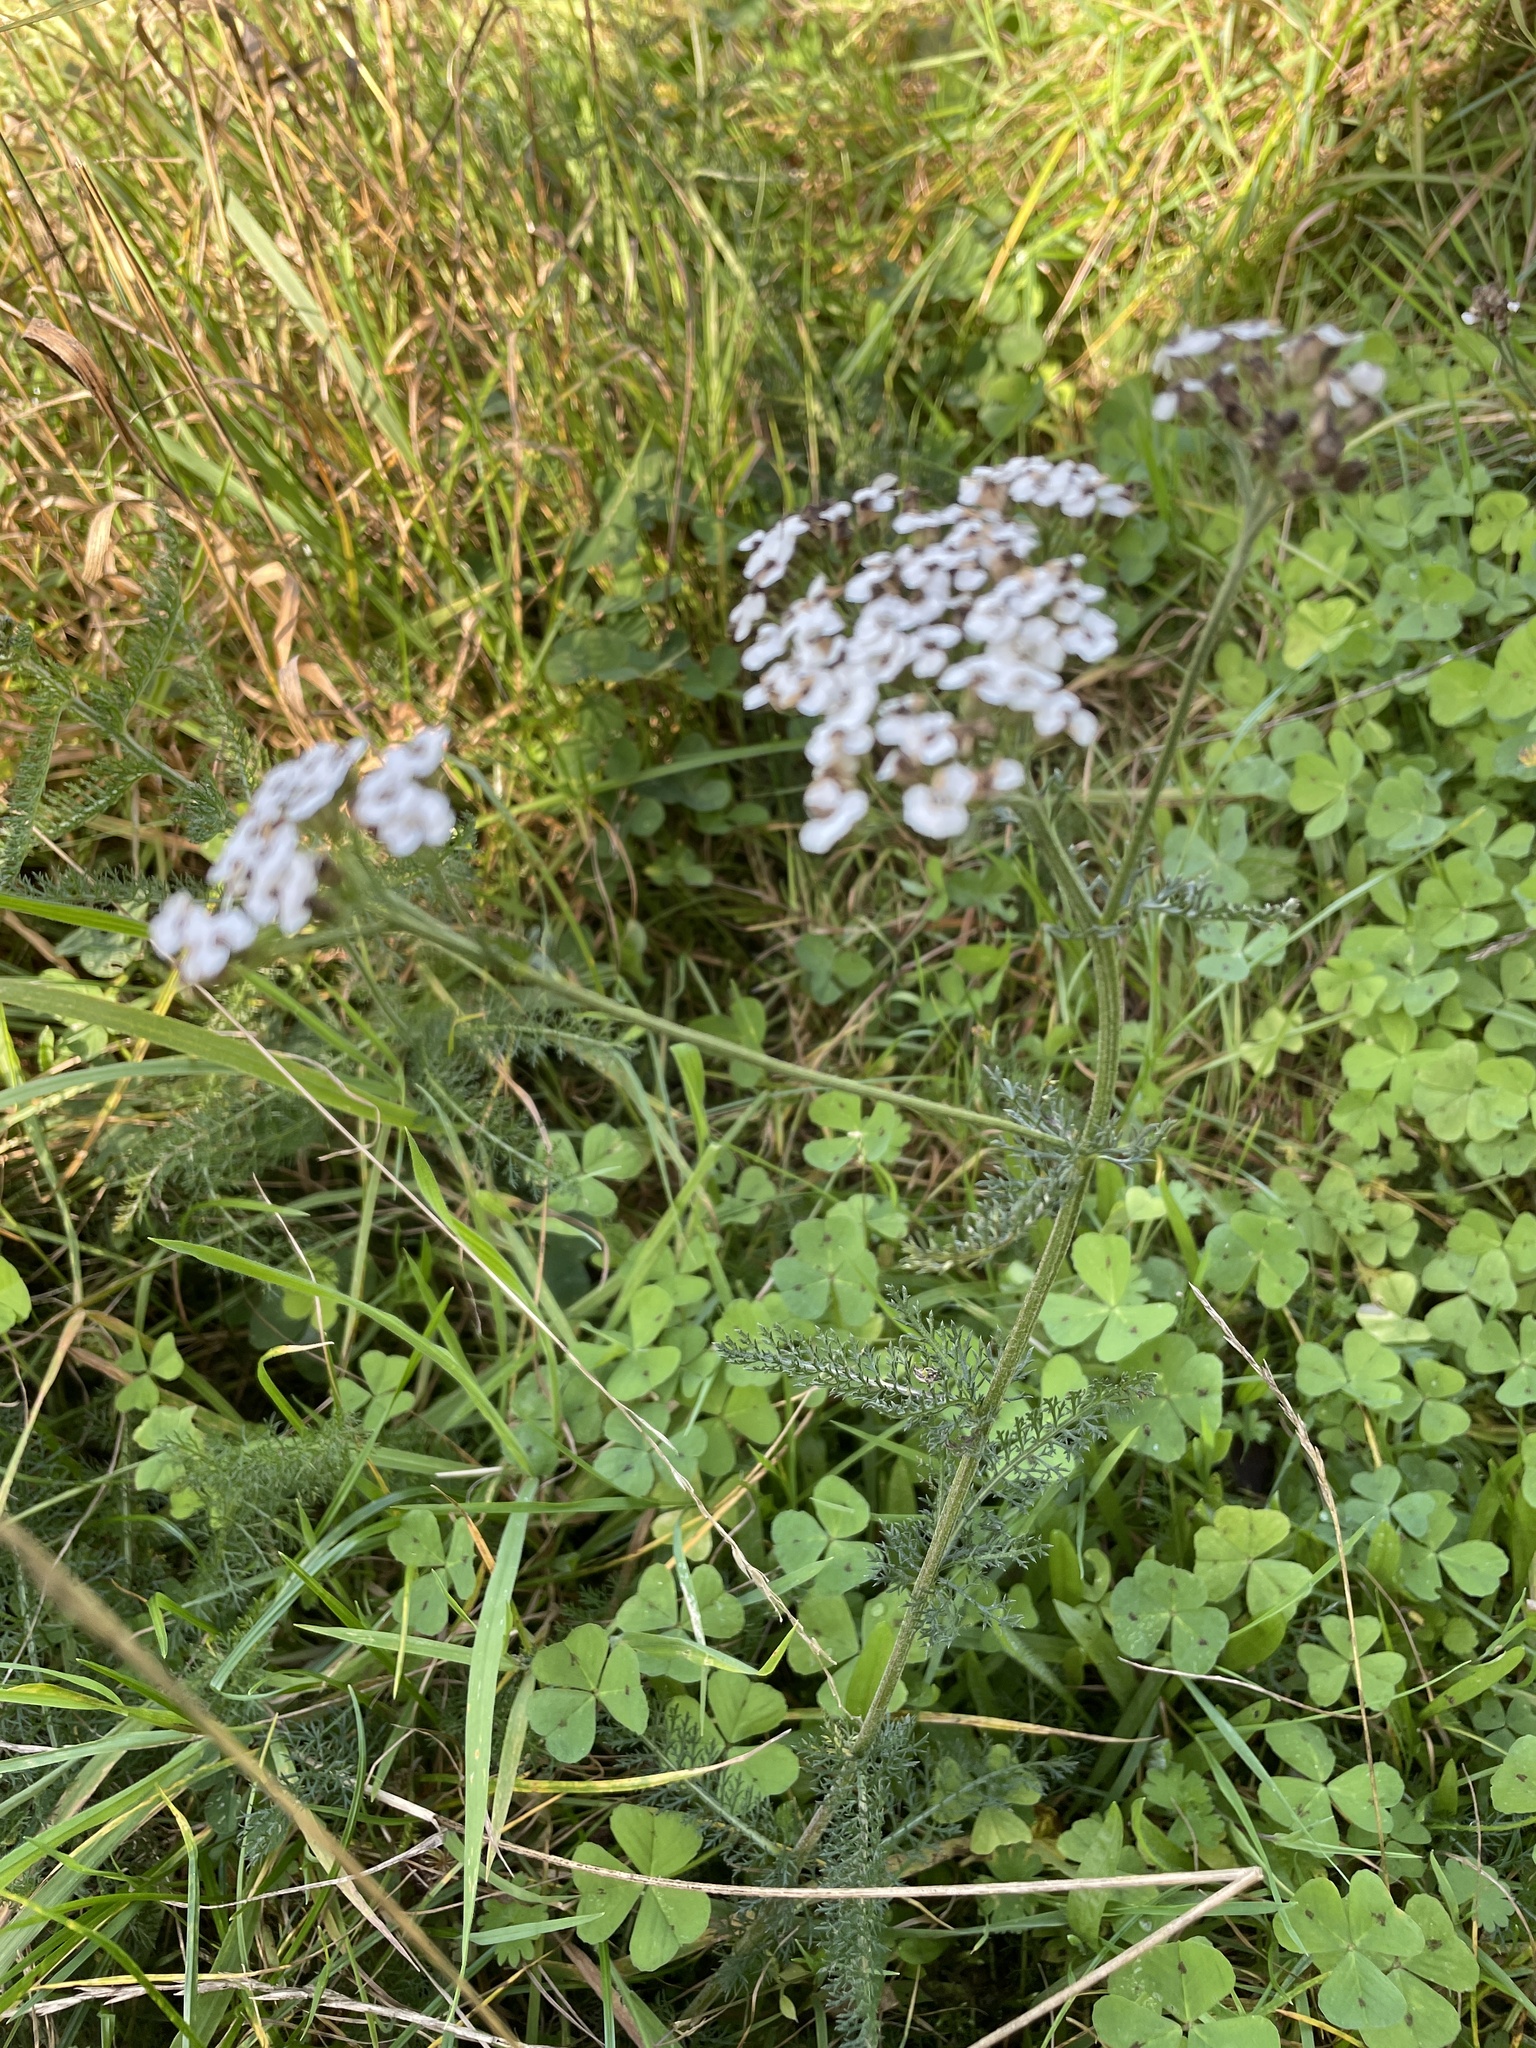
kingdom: Plantae
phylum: Tracheophyta
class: Magnoliopsida
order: Asterales
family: Asteraceae
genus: Achillea
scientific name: Achillea millefolium
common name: Yarrow
